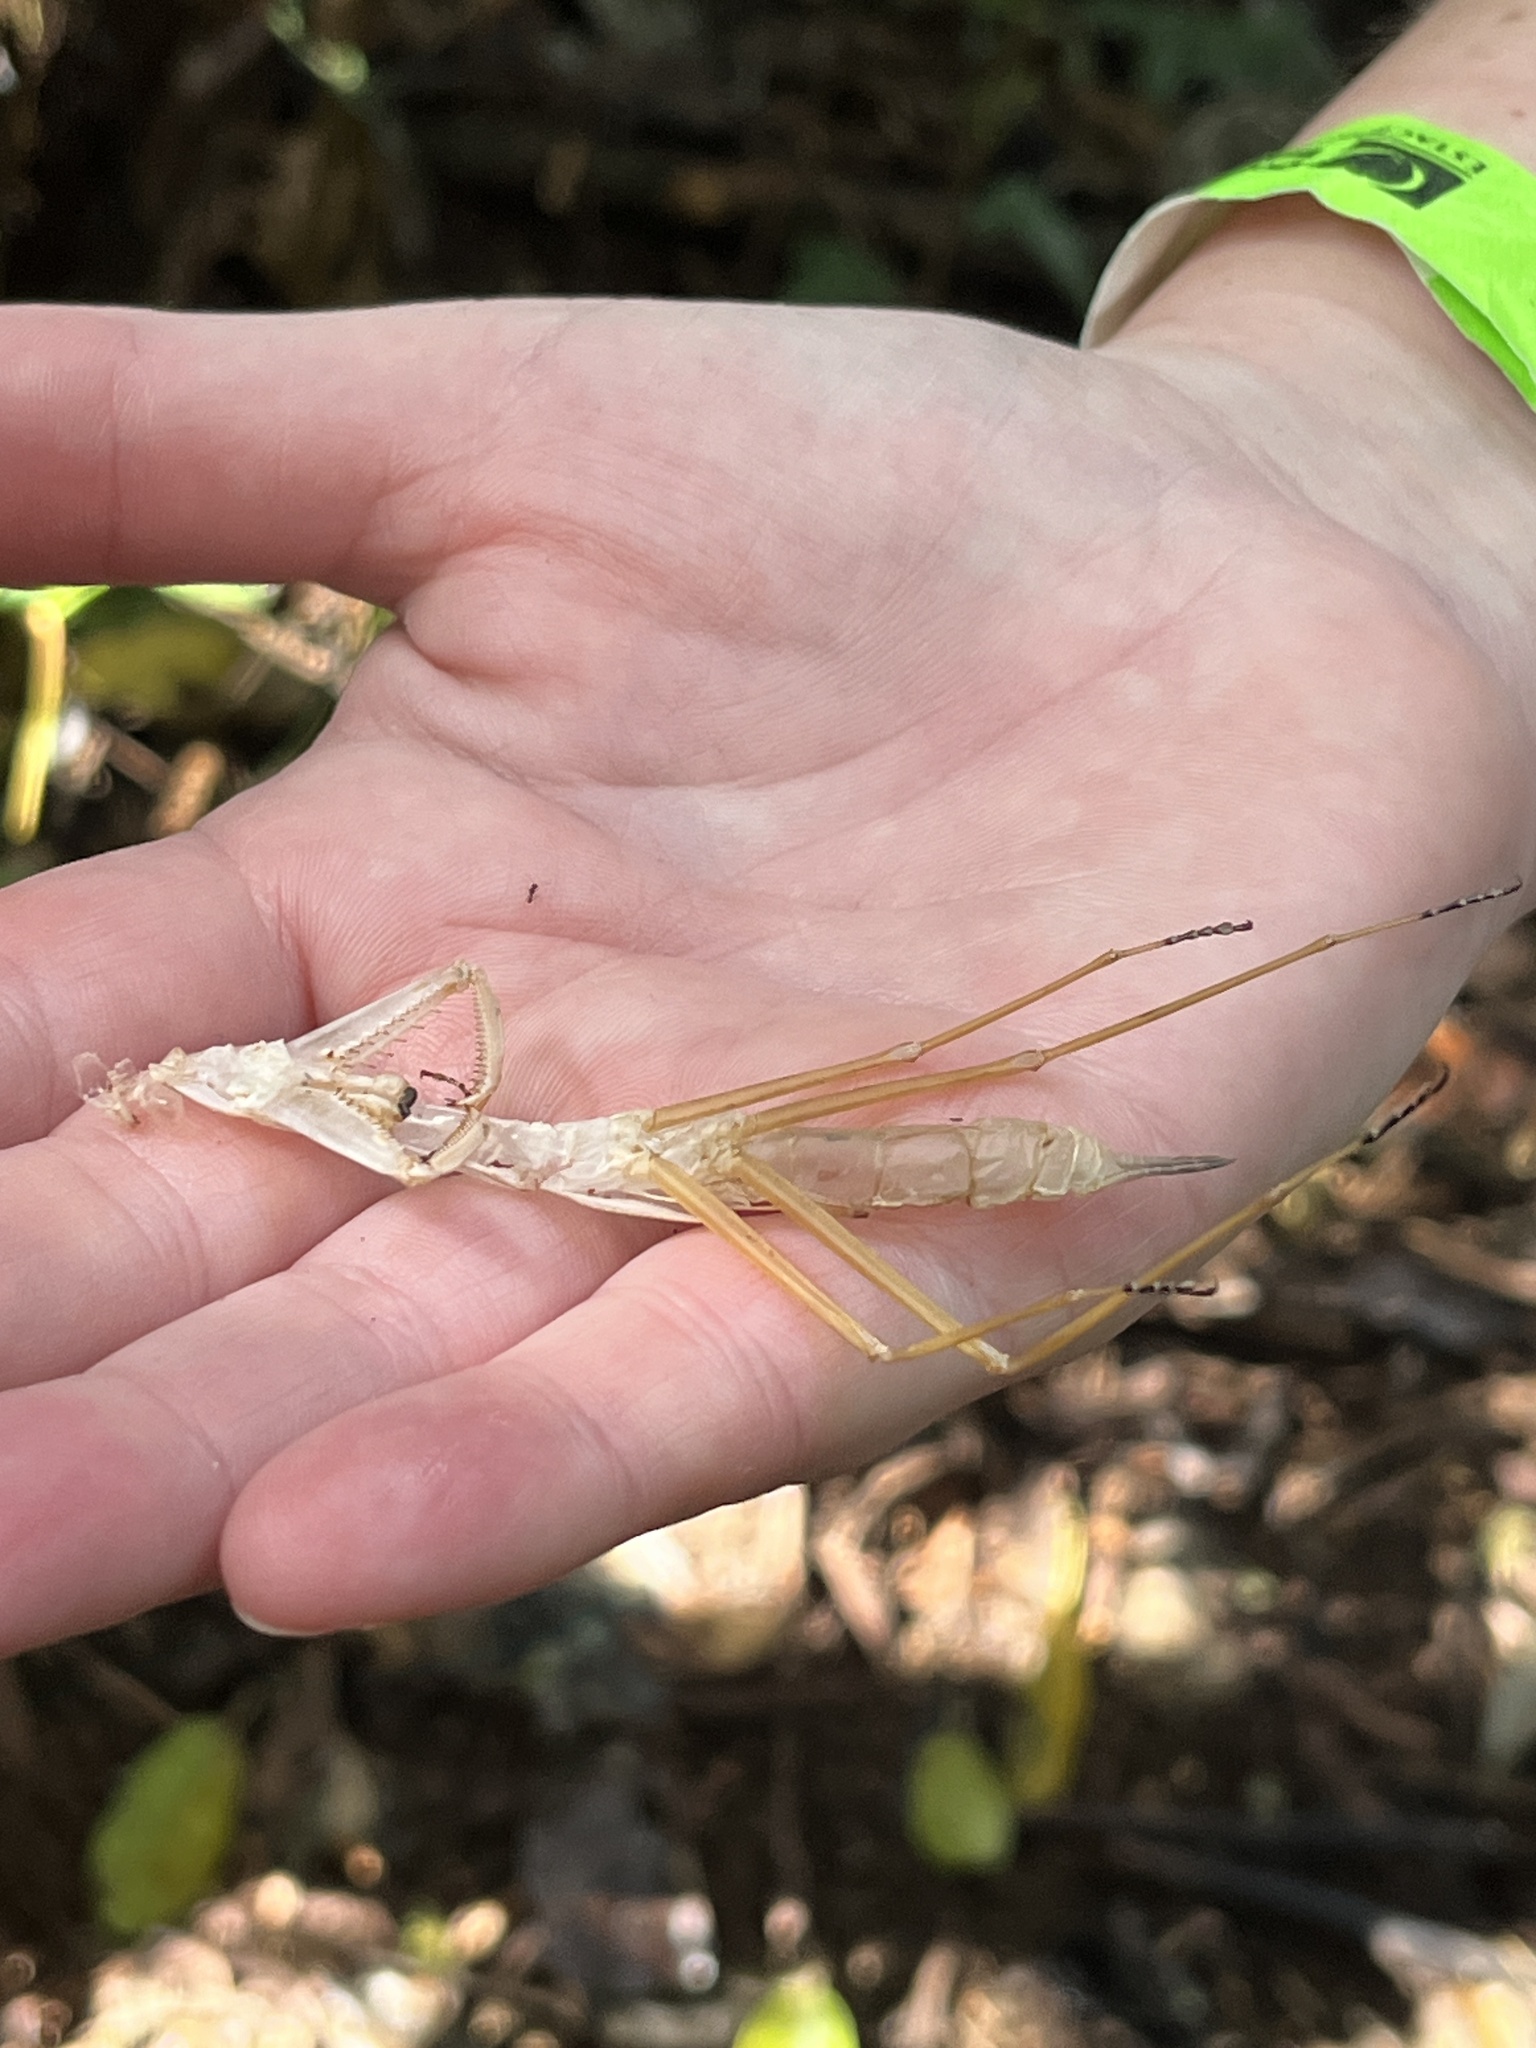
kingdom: Animalia
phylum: Arthropoda
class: Insecta
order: Mantodea
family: Photinaidae
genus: Macromantis
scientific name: Macromantis nicaraguae
